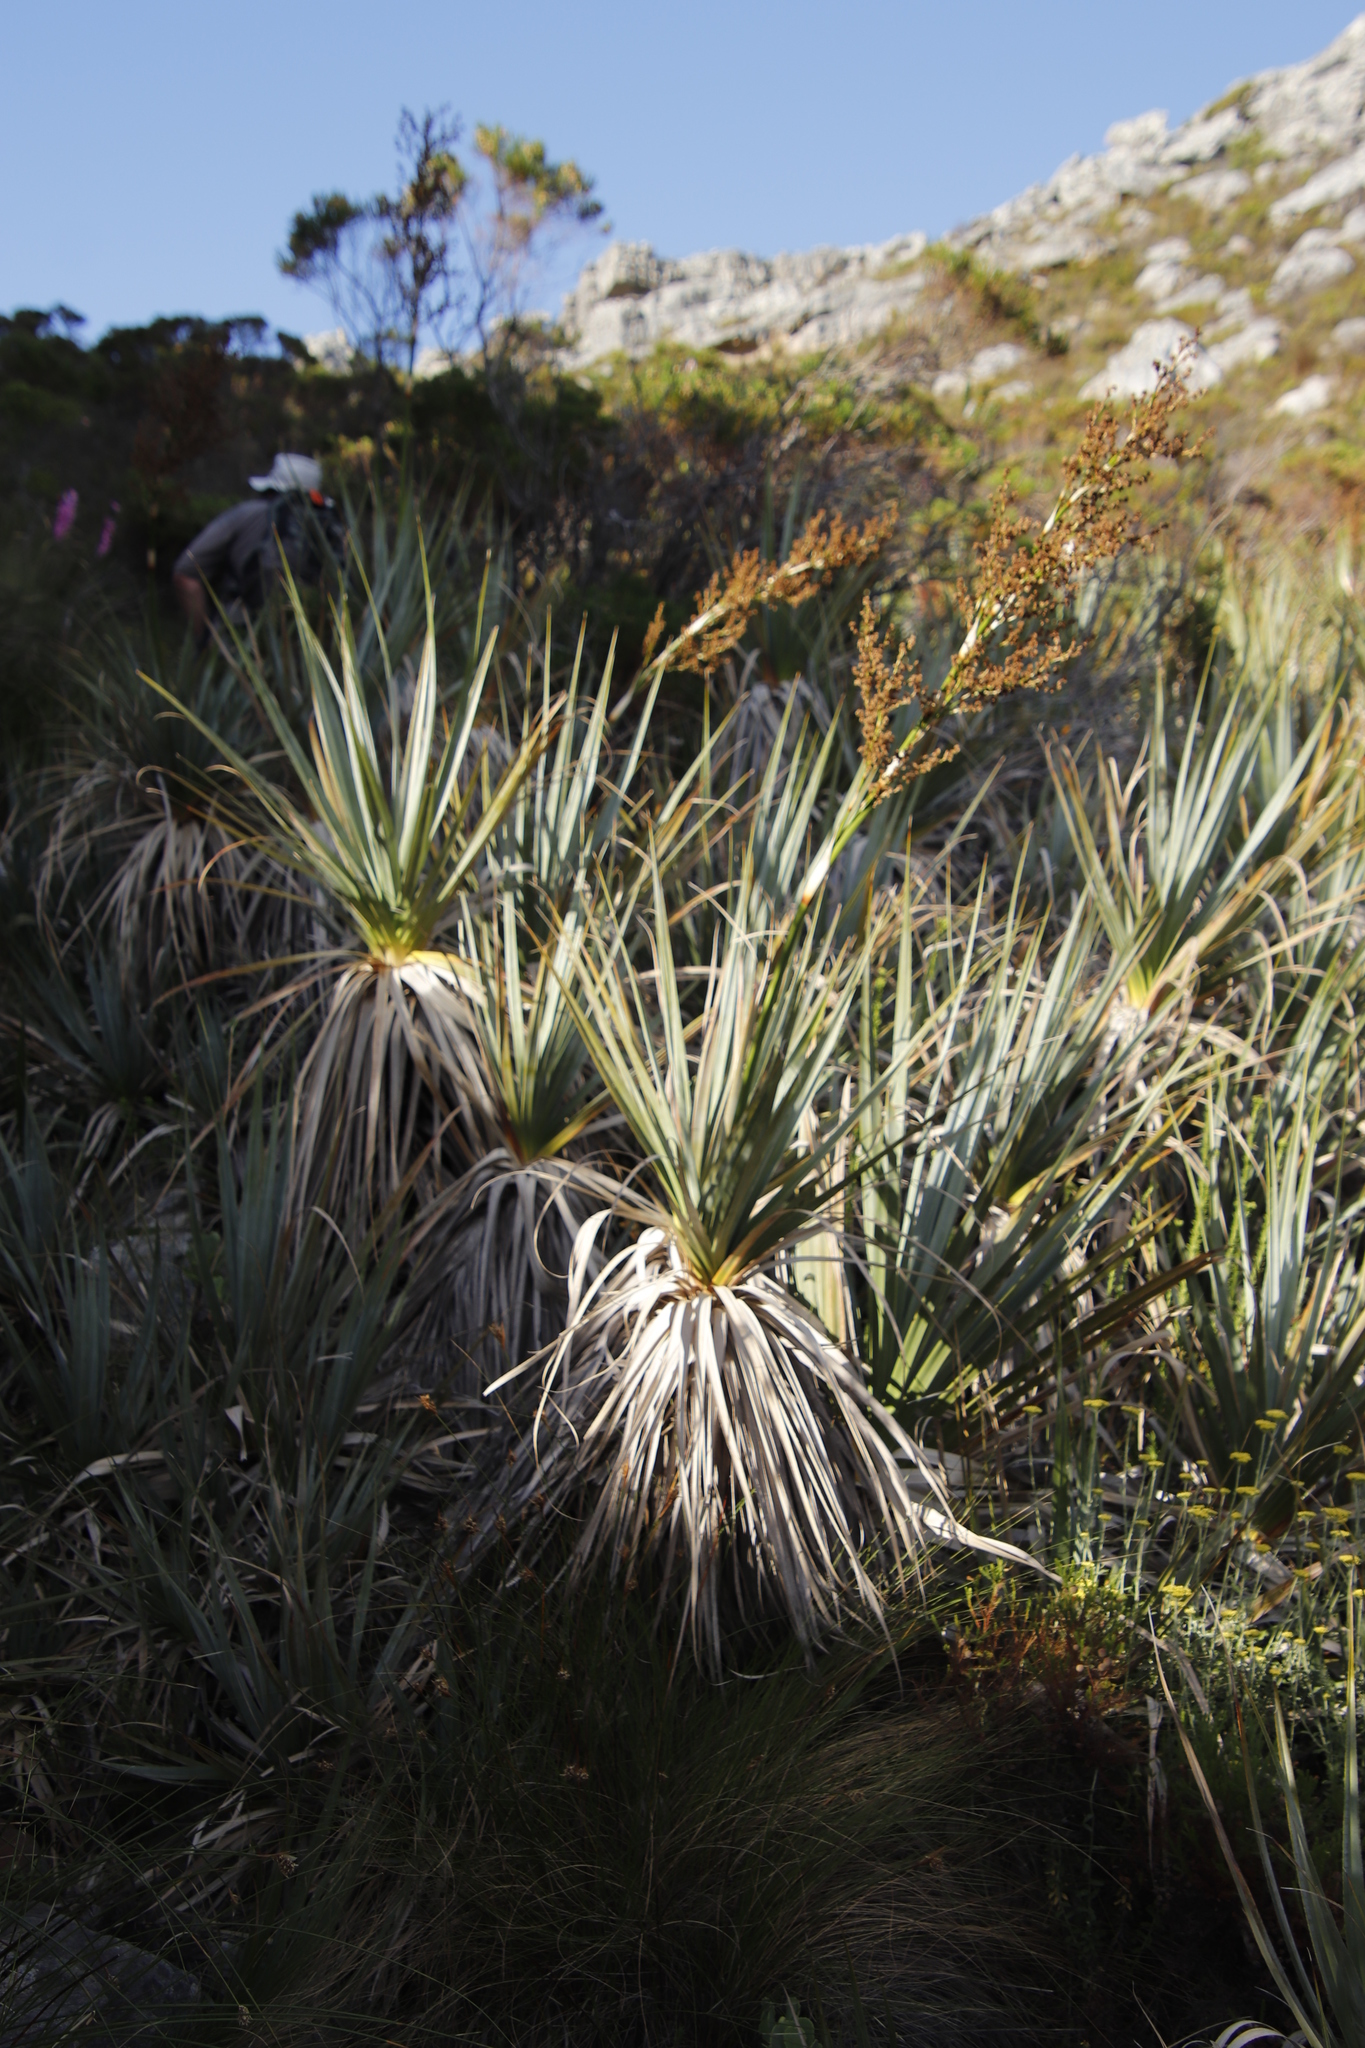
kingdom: Plantae
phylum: Tracheophyta
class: Liliopsida
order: Poales
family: Thurniaceae
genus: Prionium
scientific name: Prionium serratum
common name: Palmiet
